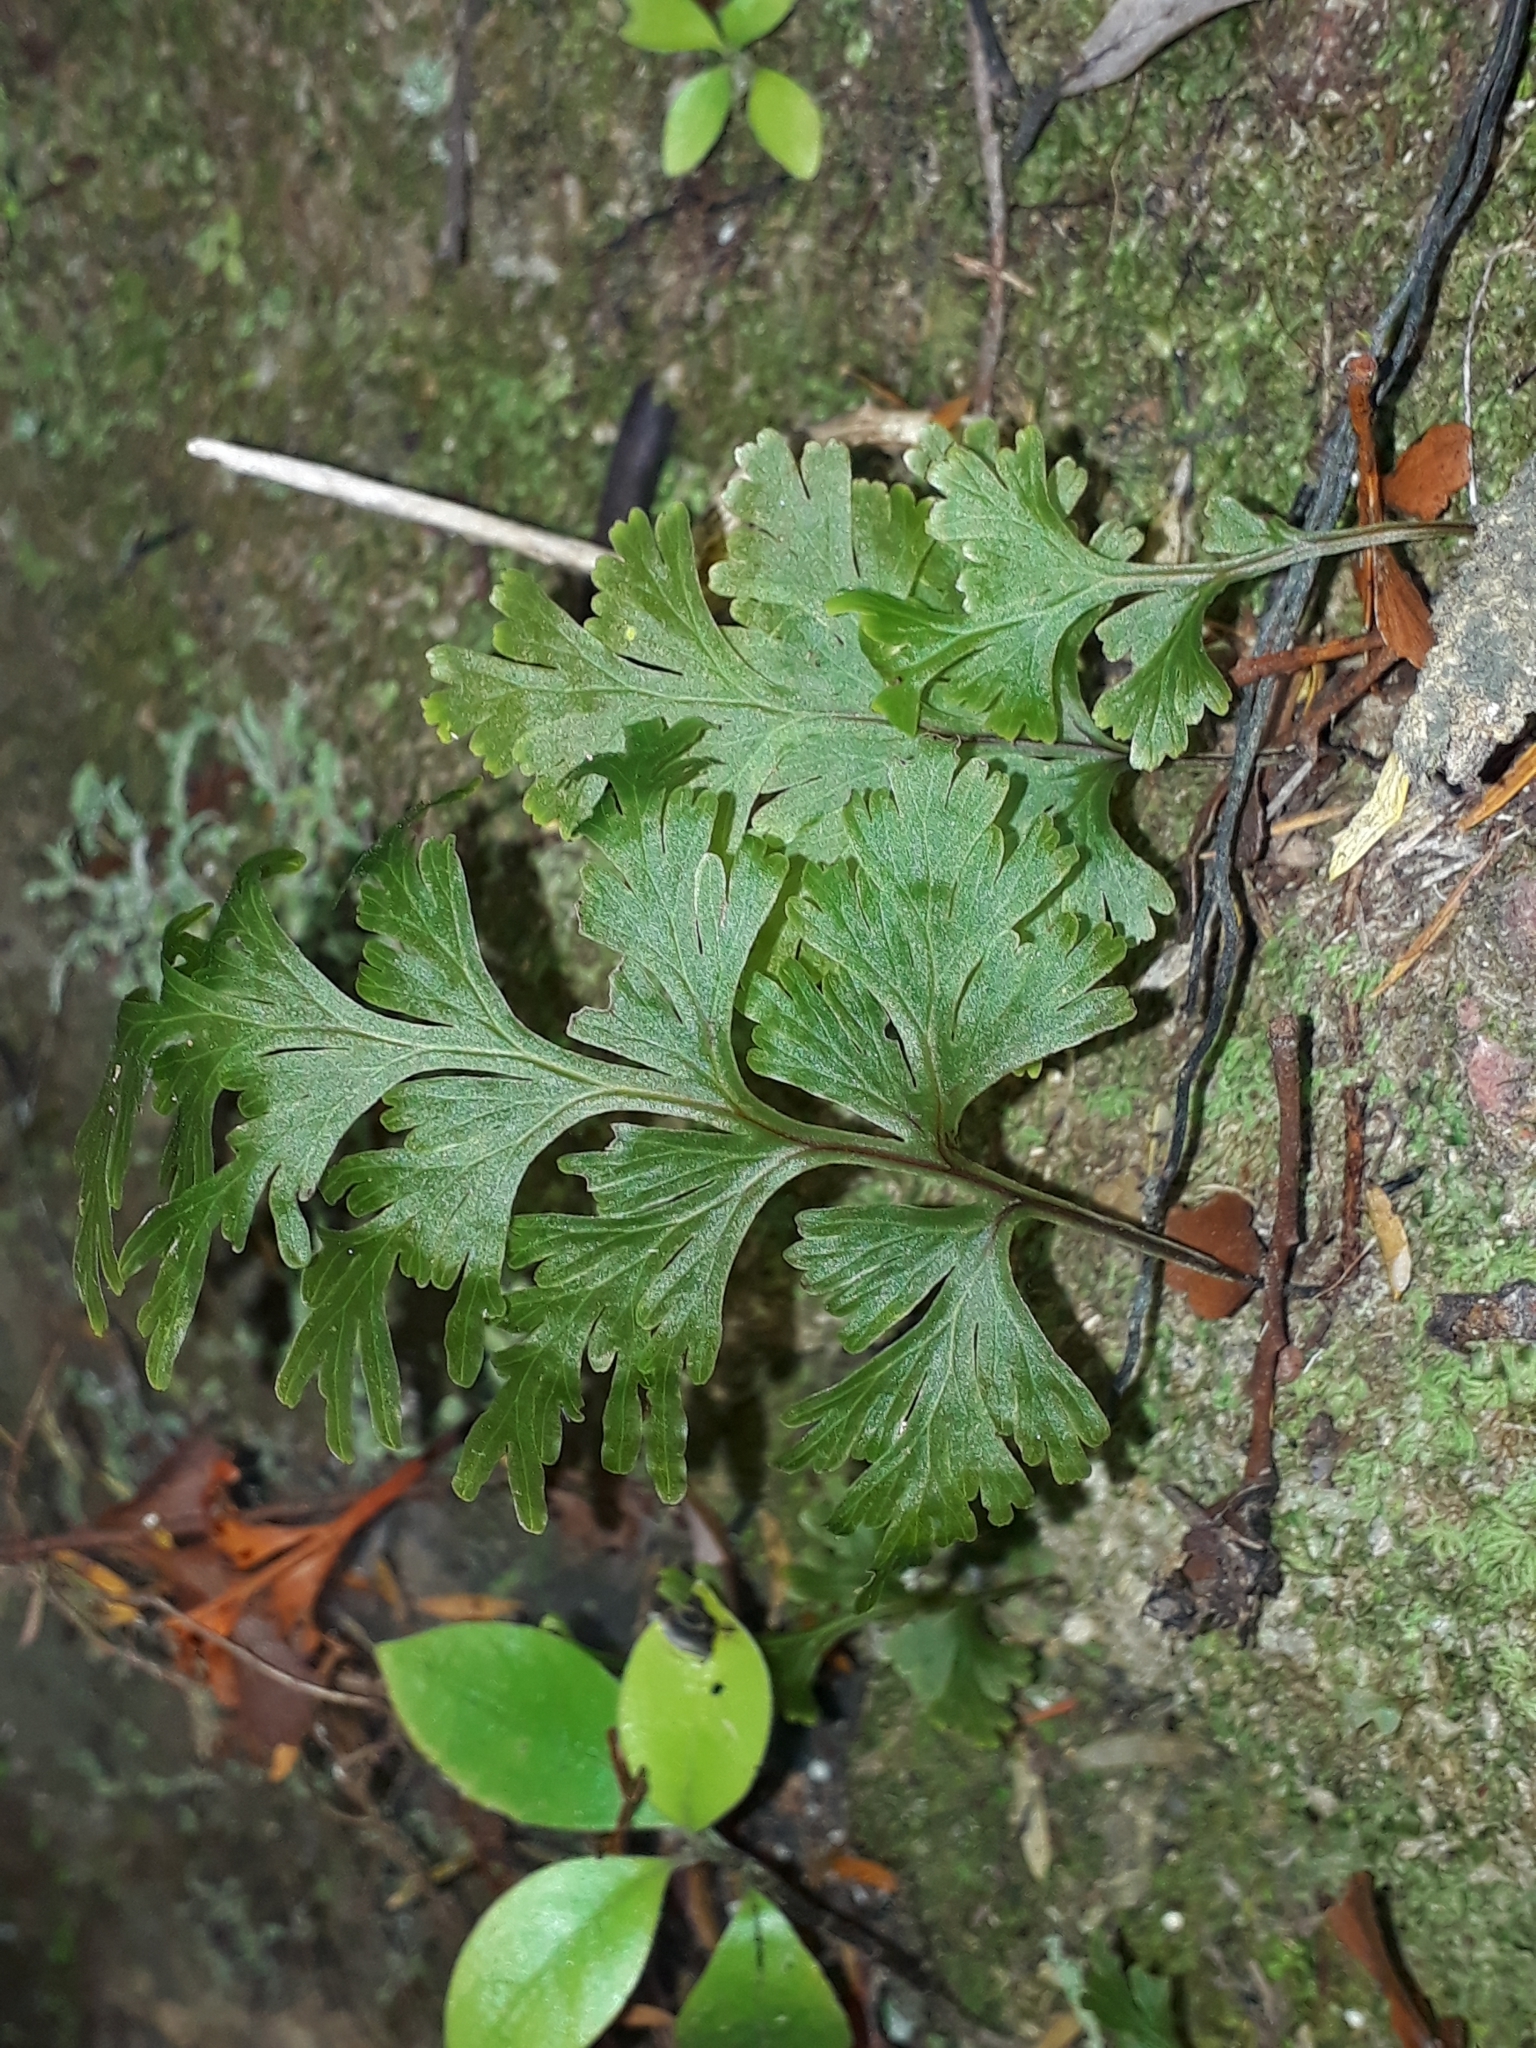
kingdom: Plantae
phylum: Tracheophyta
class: Polypodiopsida
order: Hymenophyllales
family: Hymenophyllaceae
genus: Hymenophyllum
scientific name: Hymenophyllum dilatatum
